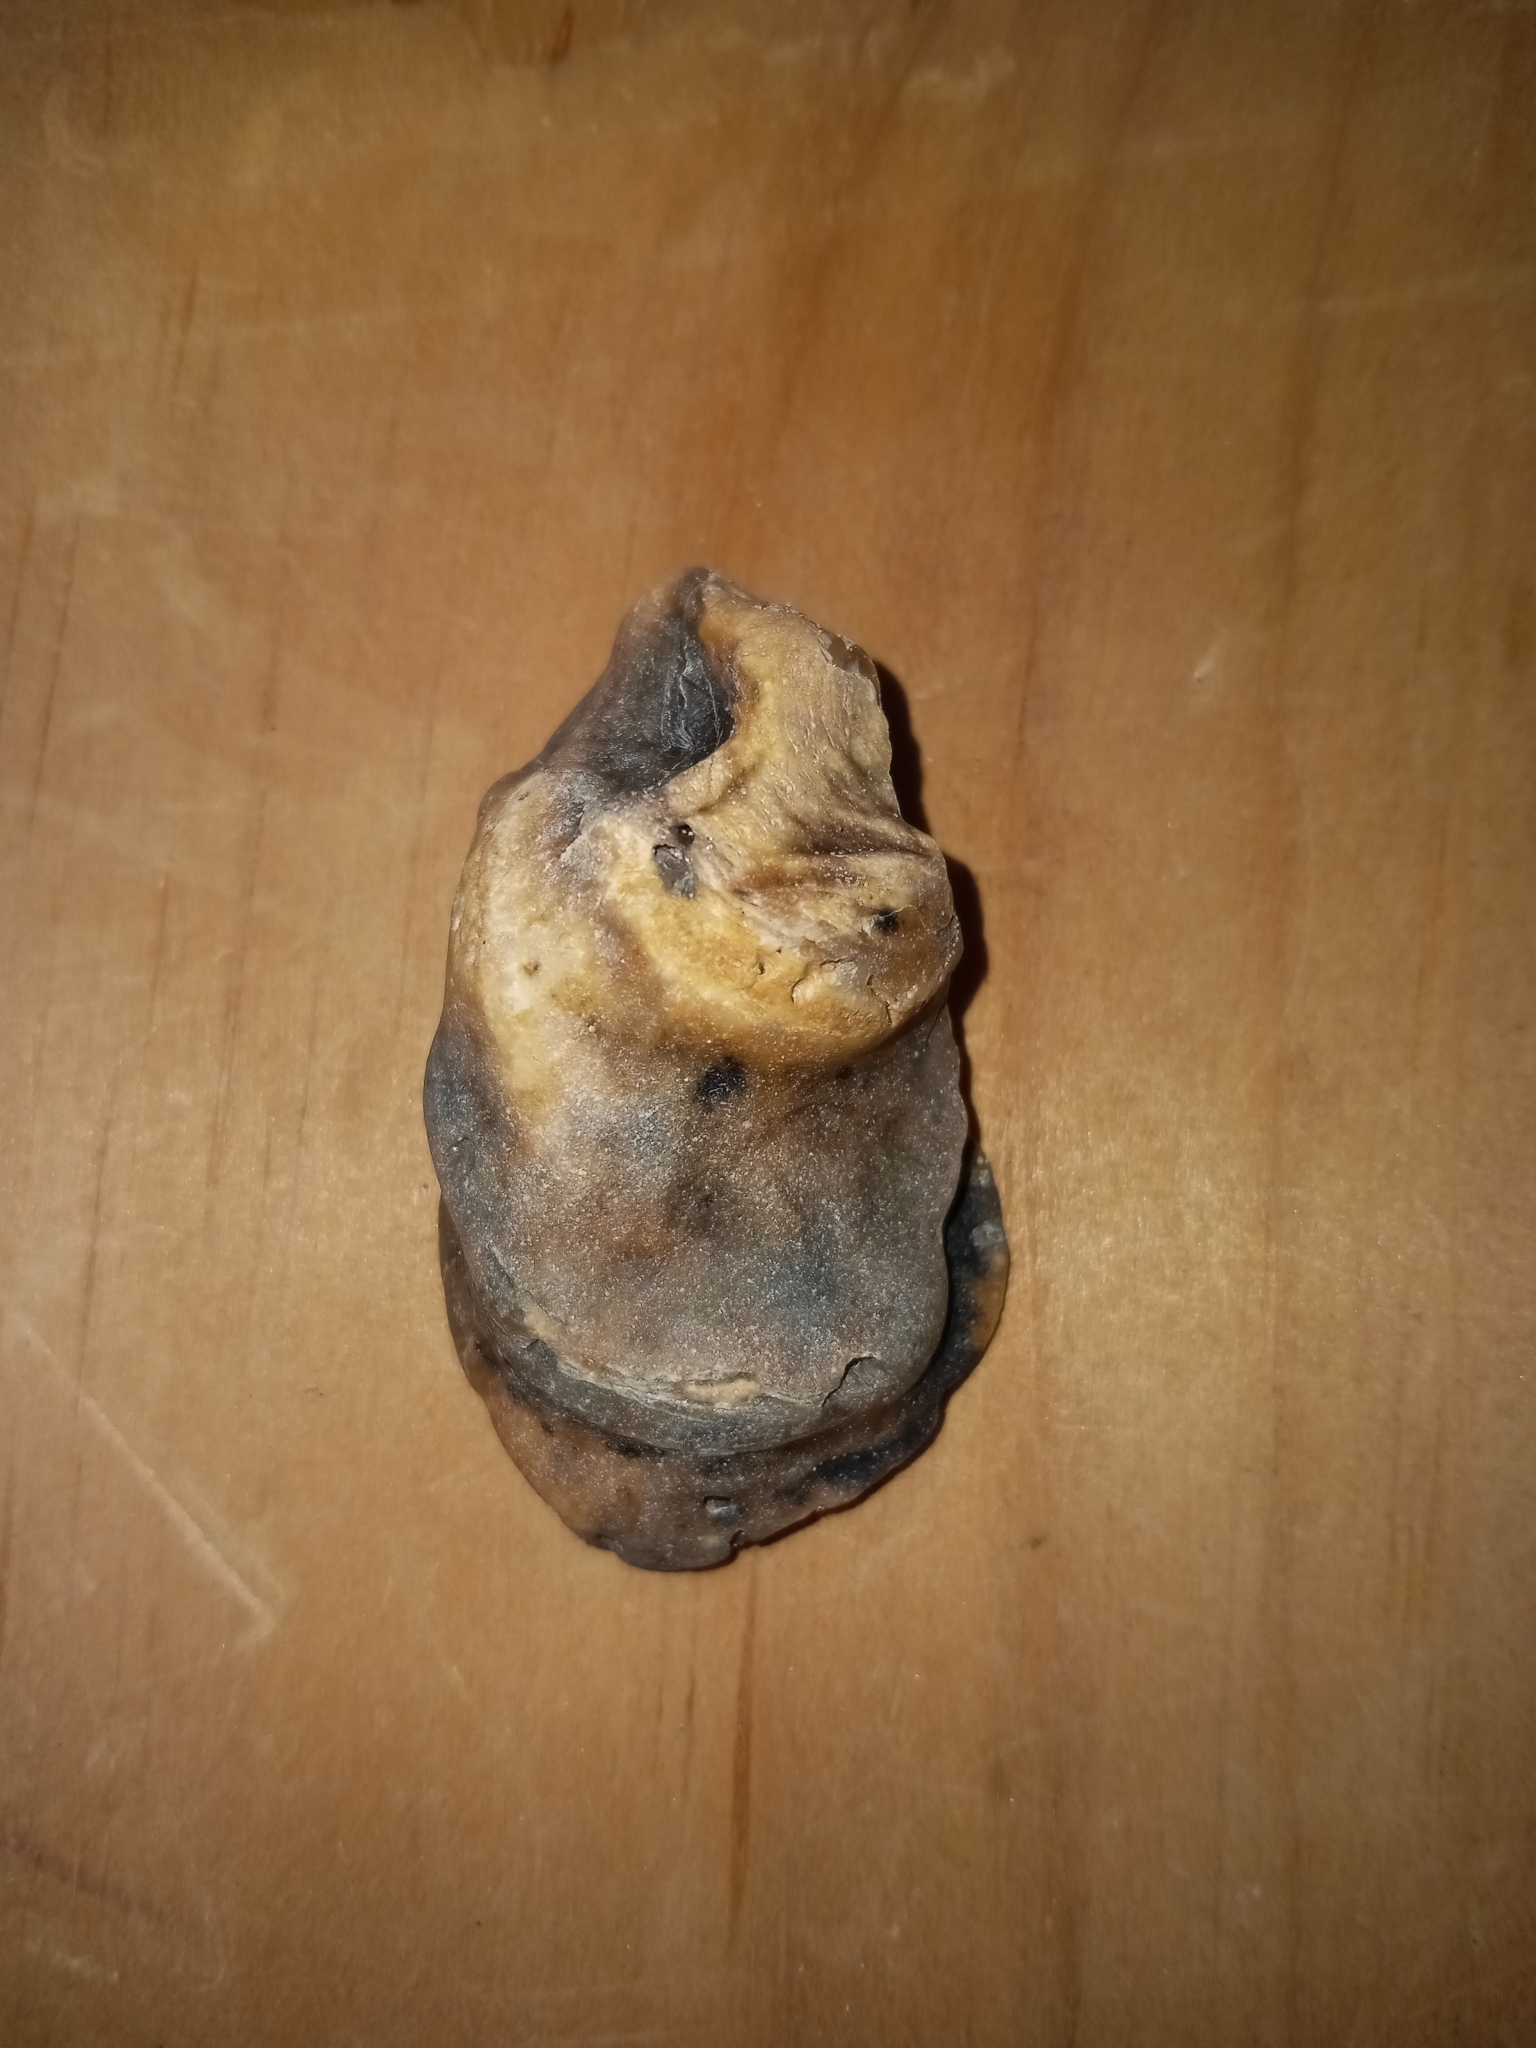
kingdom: Animalia
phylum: Mollusca
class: Bivalvia
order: Ostreida
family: Ostreidae
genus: Crassostrea
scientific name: Crassostrea virginica
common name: American oyster
